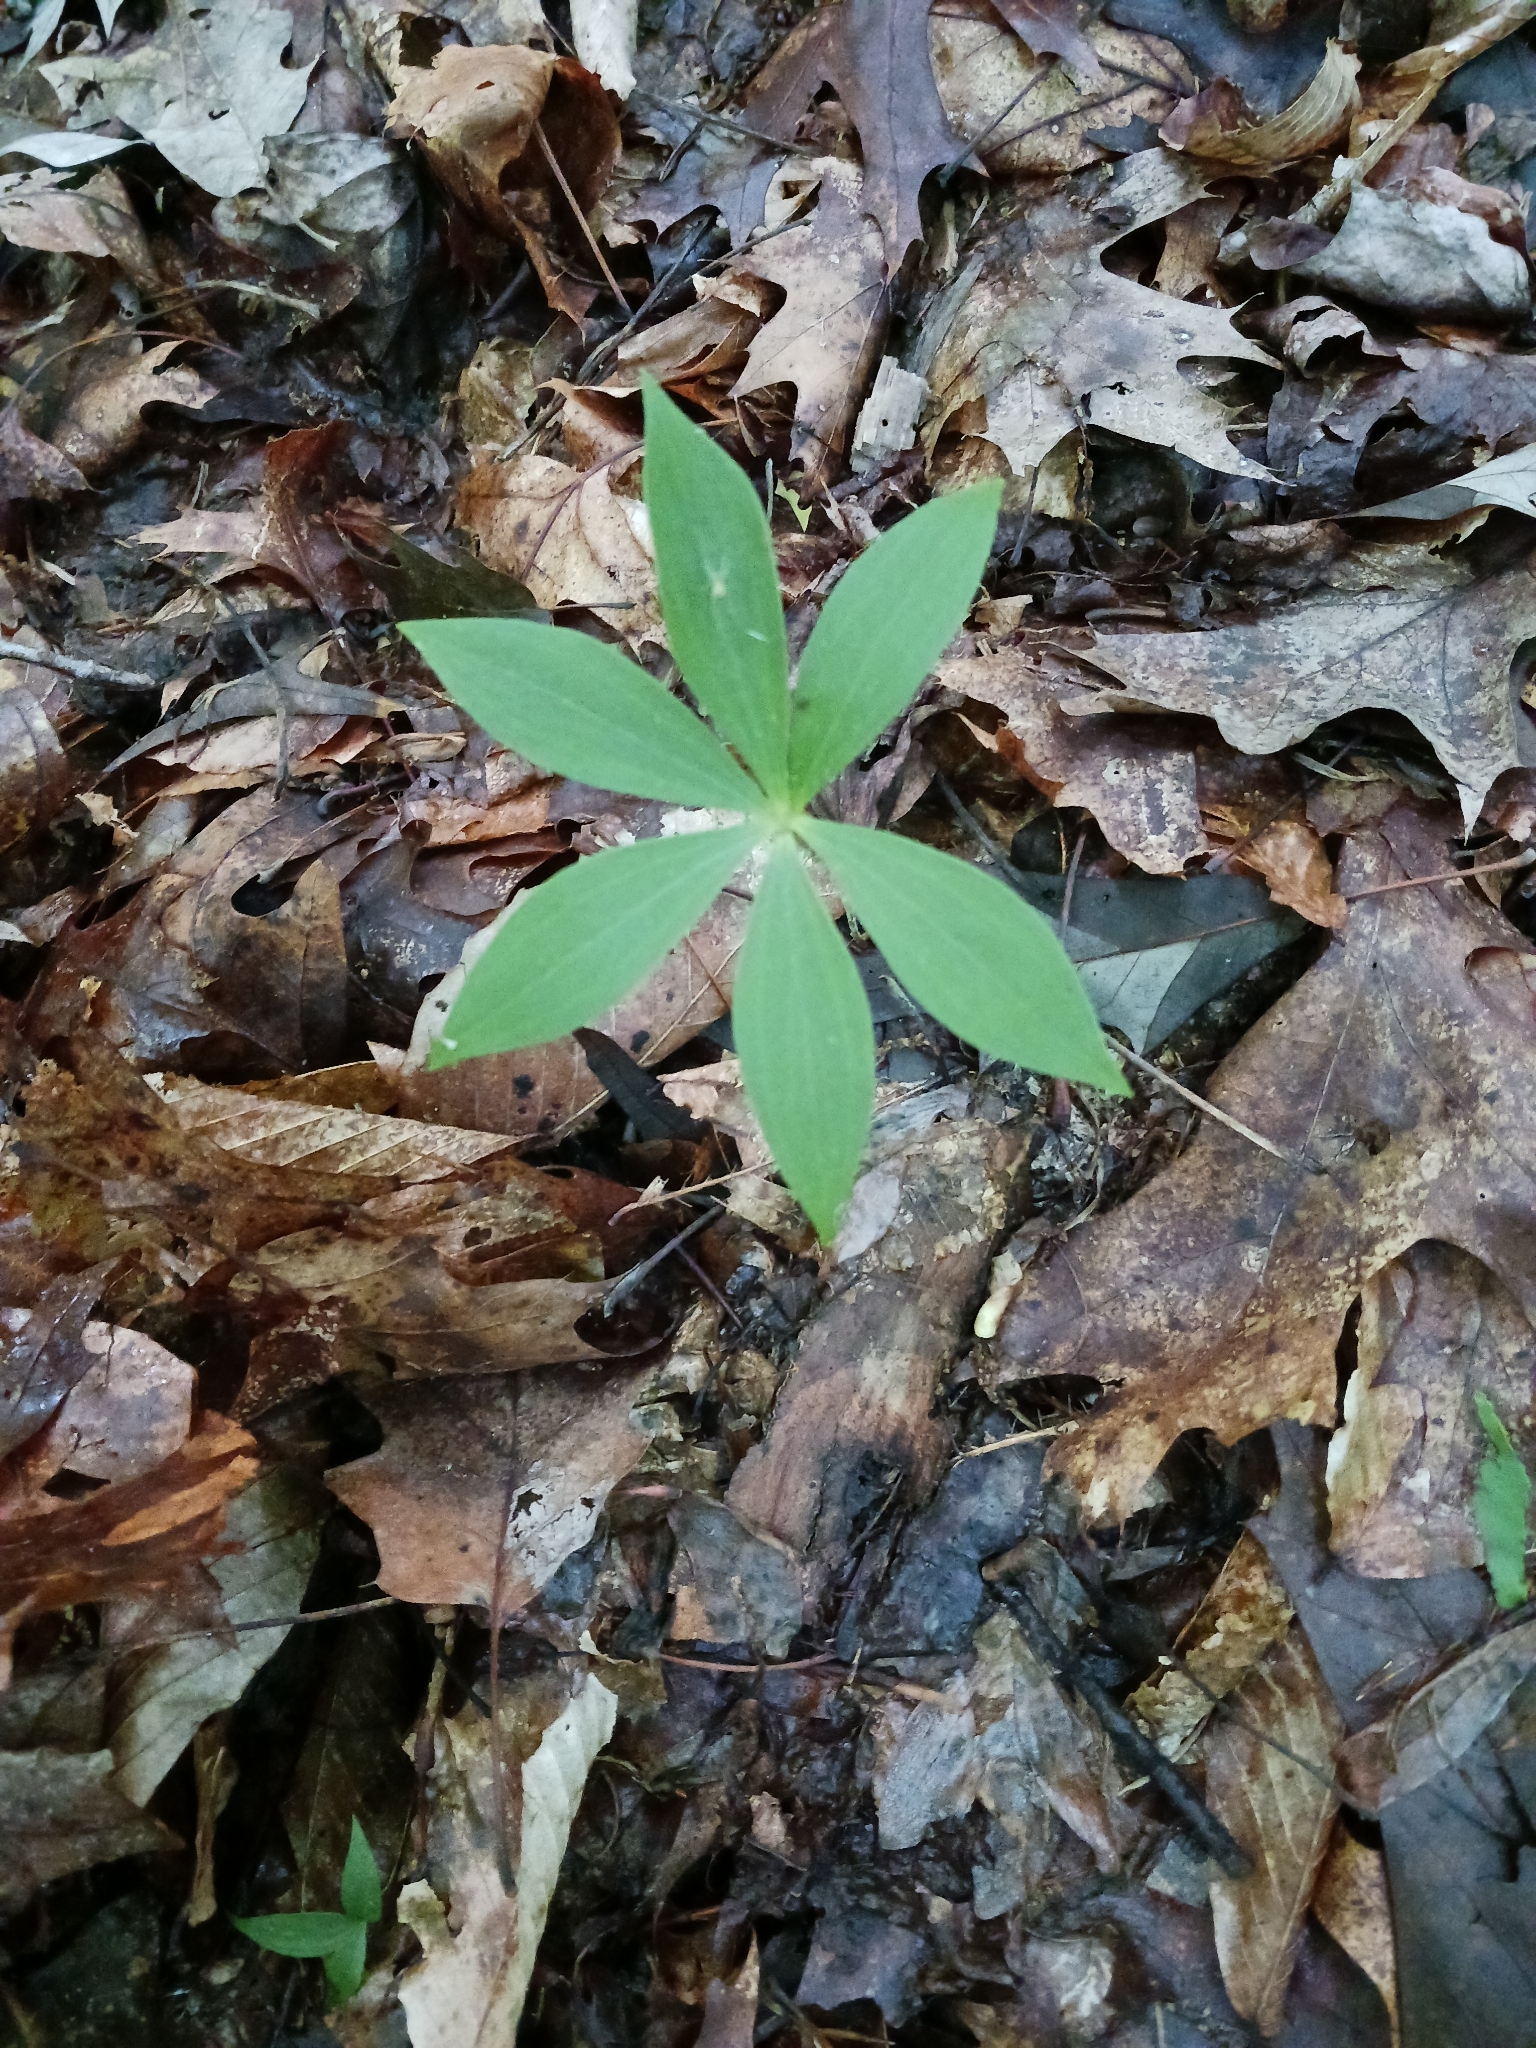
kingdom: Plantae
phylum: Tracheophyta
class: Liliopsida
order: Liliales
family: Liliaceae
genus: Medeola
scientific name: Medeola virginiana
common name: Indian cucumber-root
